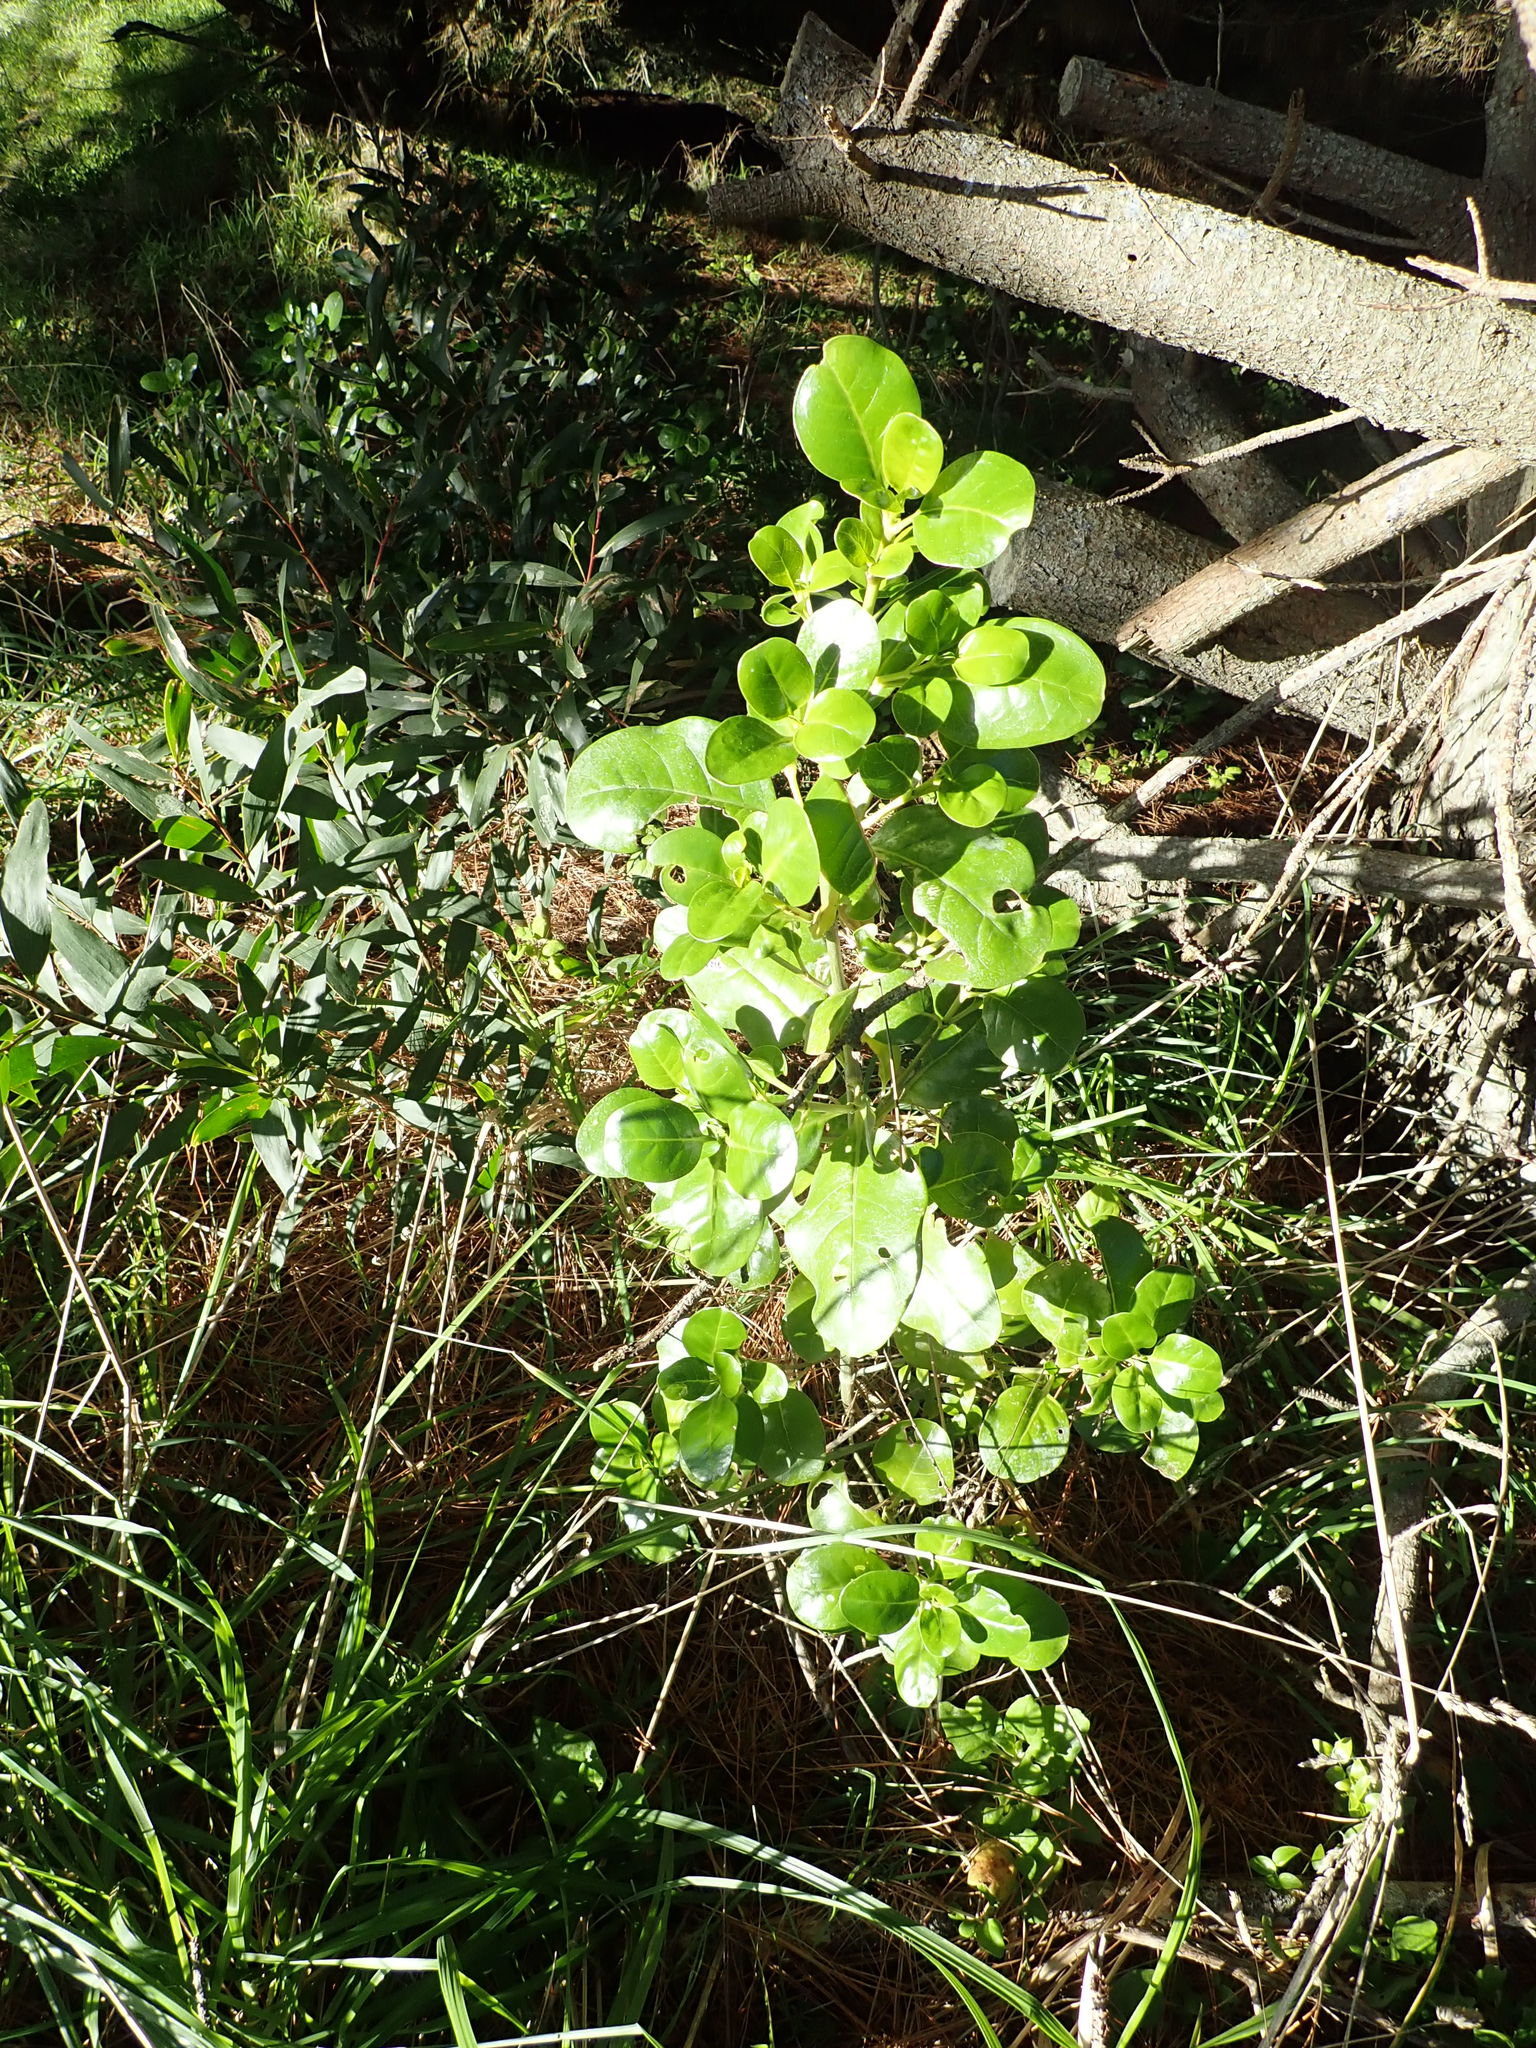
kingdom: Plantae
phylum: Tracheophyta
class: Magnoliopsida
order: Gentianales
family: Rubiaceae
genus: Coprosma
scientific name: Coprosma repens
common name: Tree bedstraw
